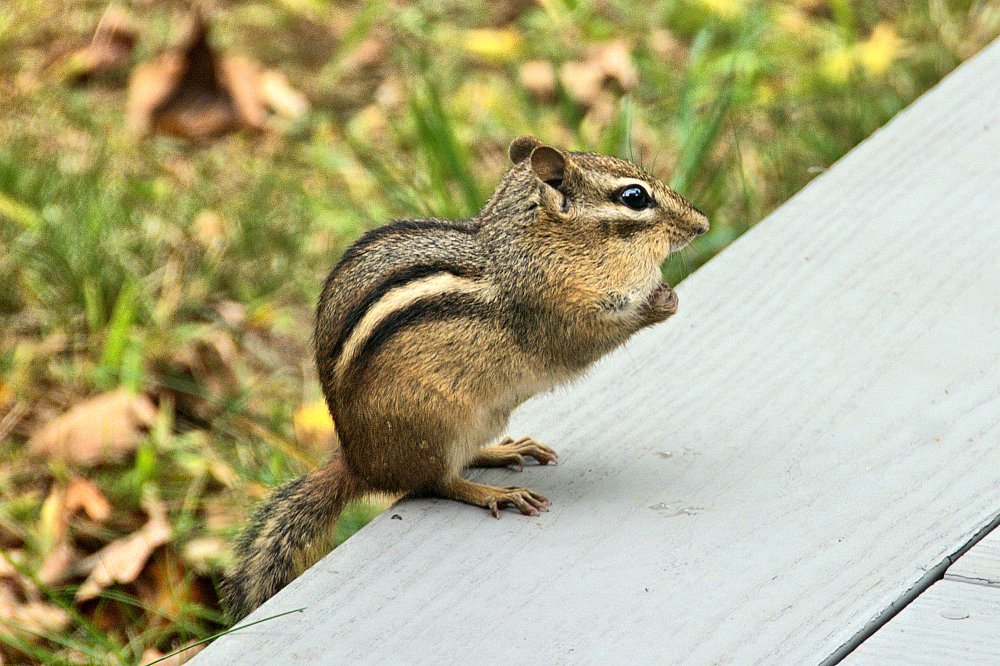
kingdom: Animalia
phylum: Chordata
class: Mammalia
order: Rodentia
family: Sciuridae
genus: Tamias
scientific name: Tamias striatus
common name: Eastern chipmunk
